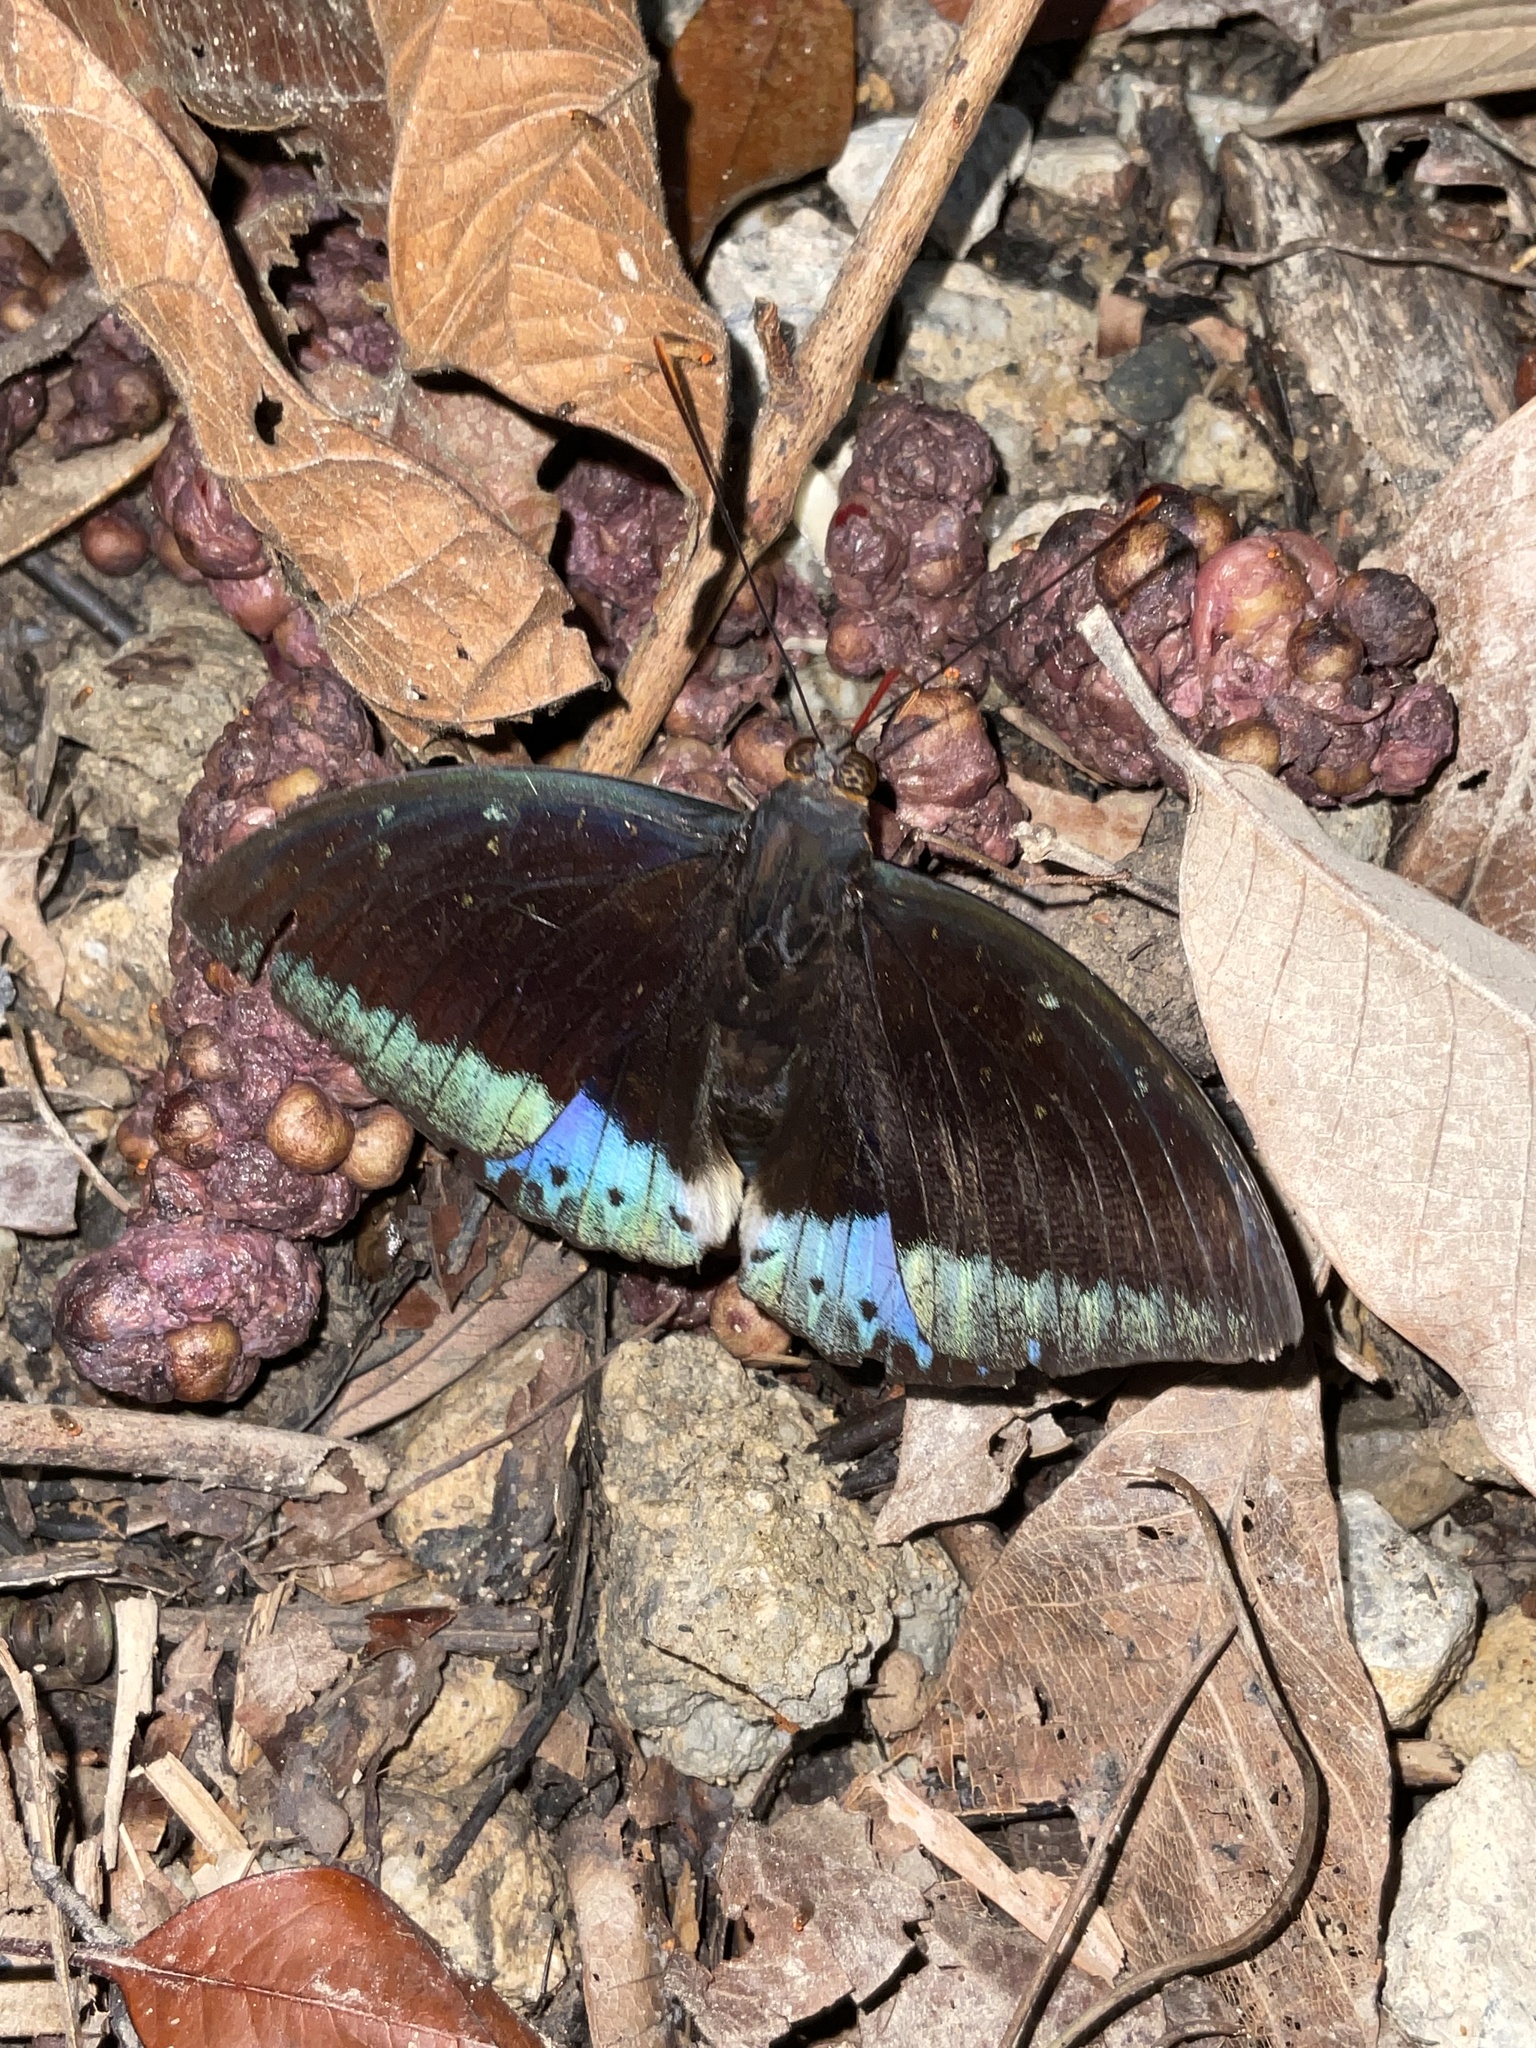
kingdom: Animalia
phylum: Arthropoda
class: Insecta
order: Lepidoptera
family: Nymphalidae
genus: Lexias
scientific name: Lexias pardalis
